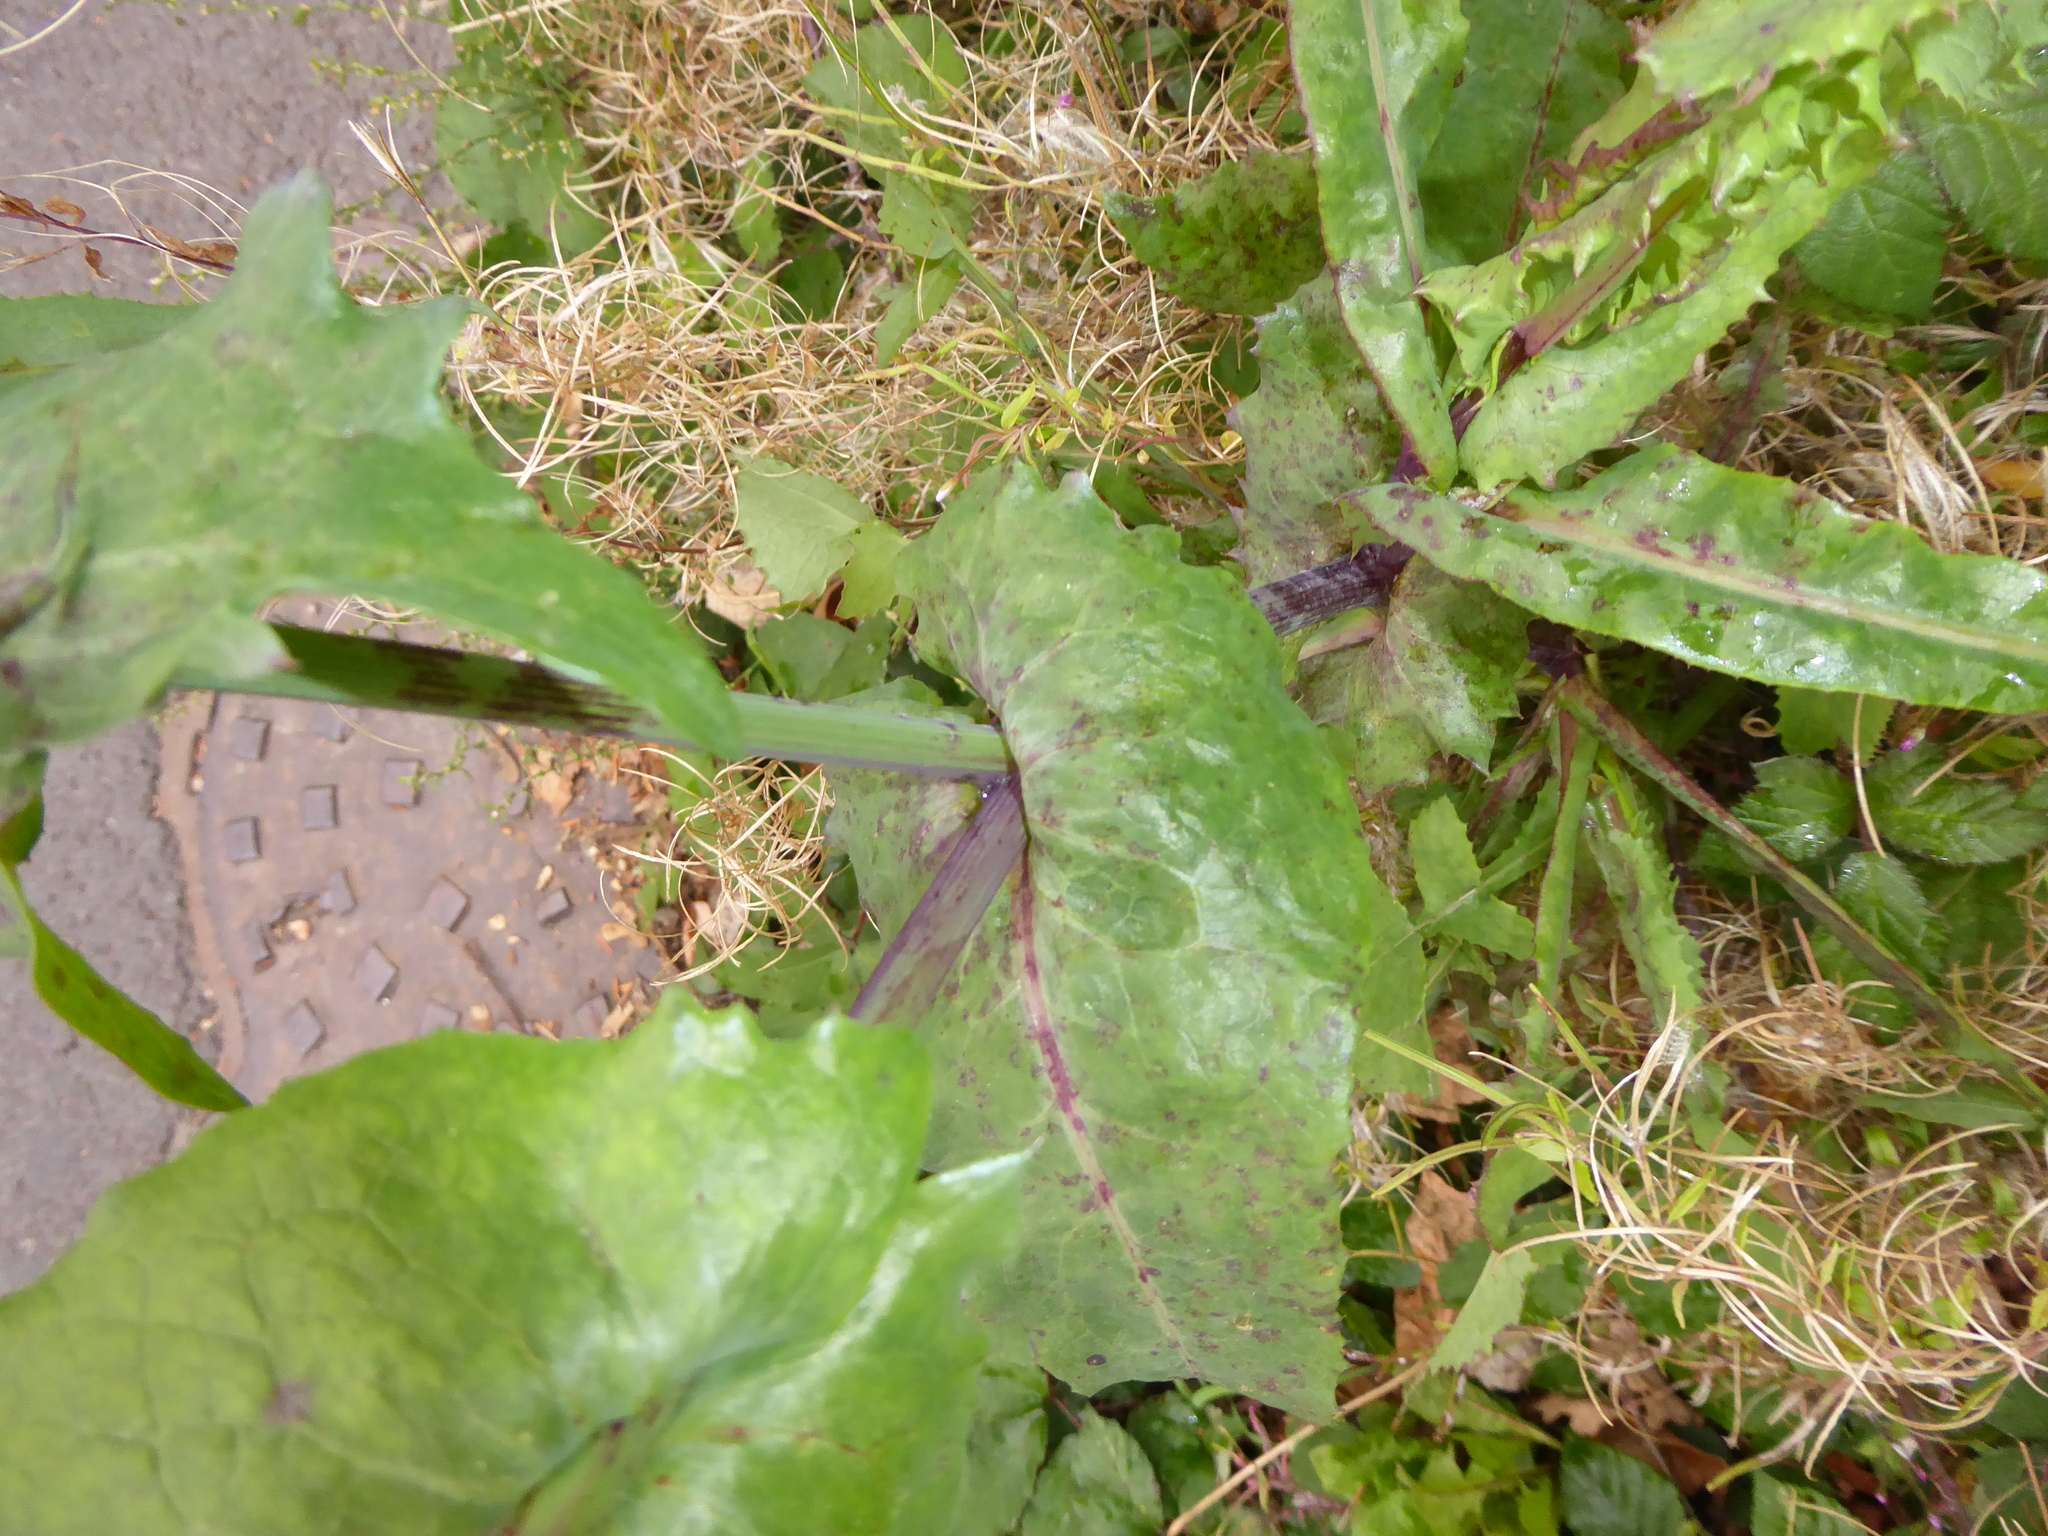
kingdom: Plantae
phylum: Tracheophyta
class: Magnoliopsida
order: Asterales
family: Asteraceae
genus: Sonchus
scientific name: Sonchus oleraceus
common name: Common sowthistle
